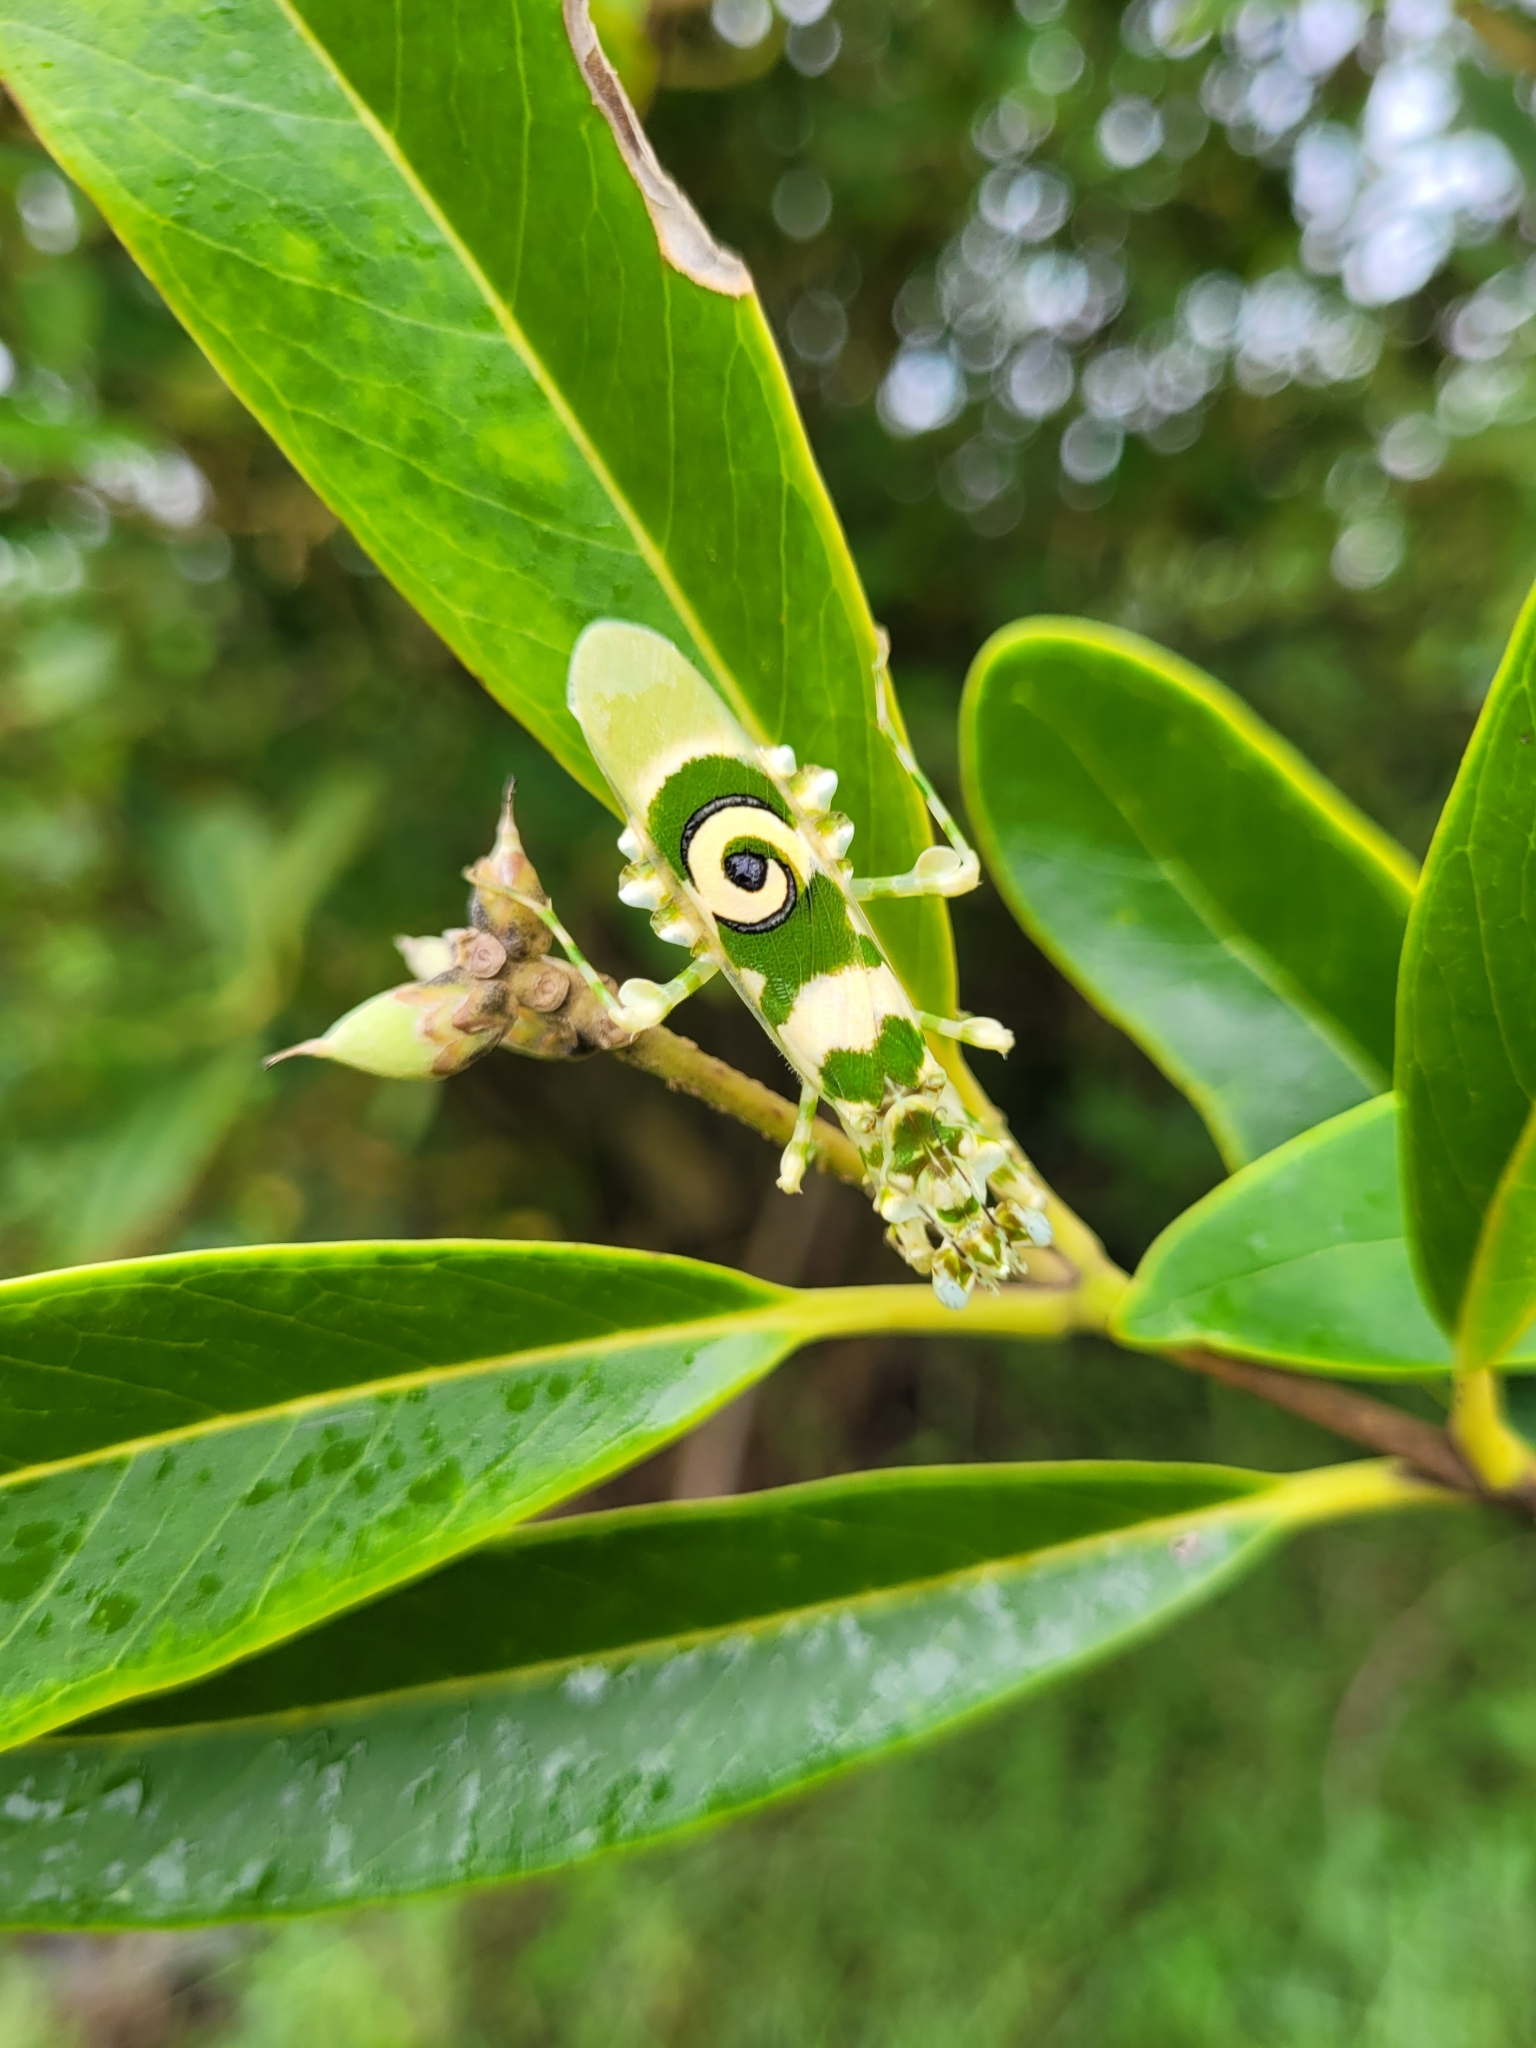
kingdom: Animalia
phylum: Arthropoda
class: Insecta
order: Mantodea
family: Hymenopodidae
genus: Pseudocreobotra
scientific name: Pseudocreobotra ocellata
